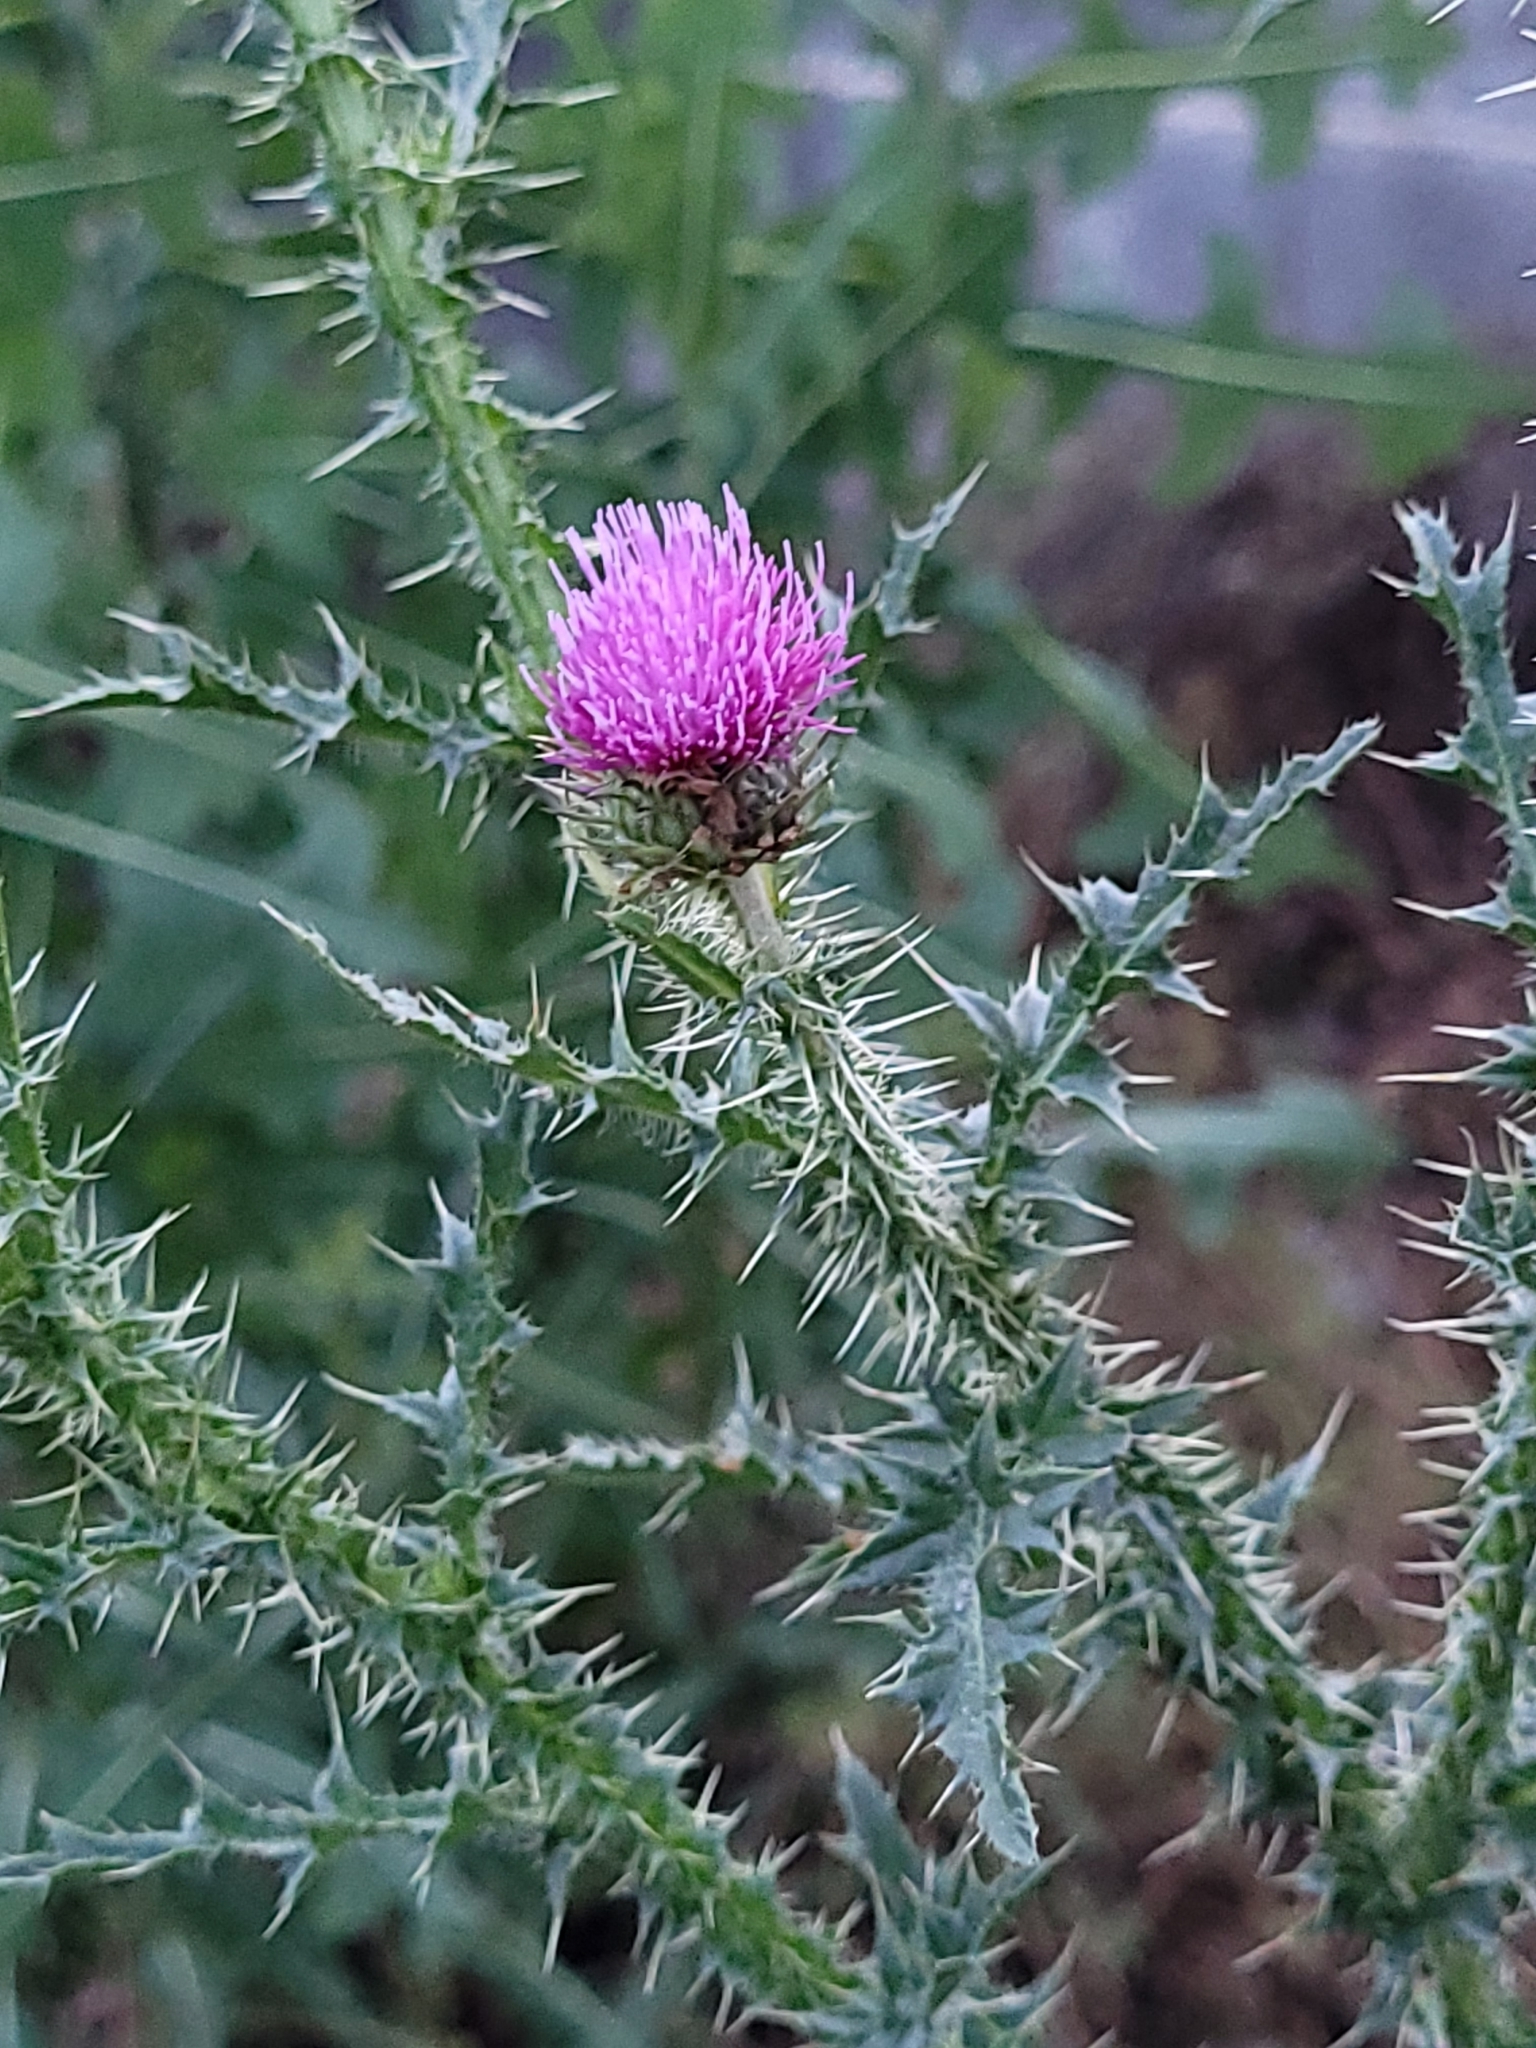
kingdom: Plantae
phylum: Tracheophyta
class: Magnoliopsida
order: Asterales
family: Asteraceae
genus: Carduus
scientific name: Carduus acanthoides
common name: Plumeless thistle
